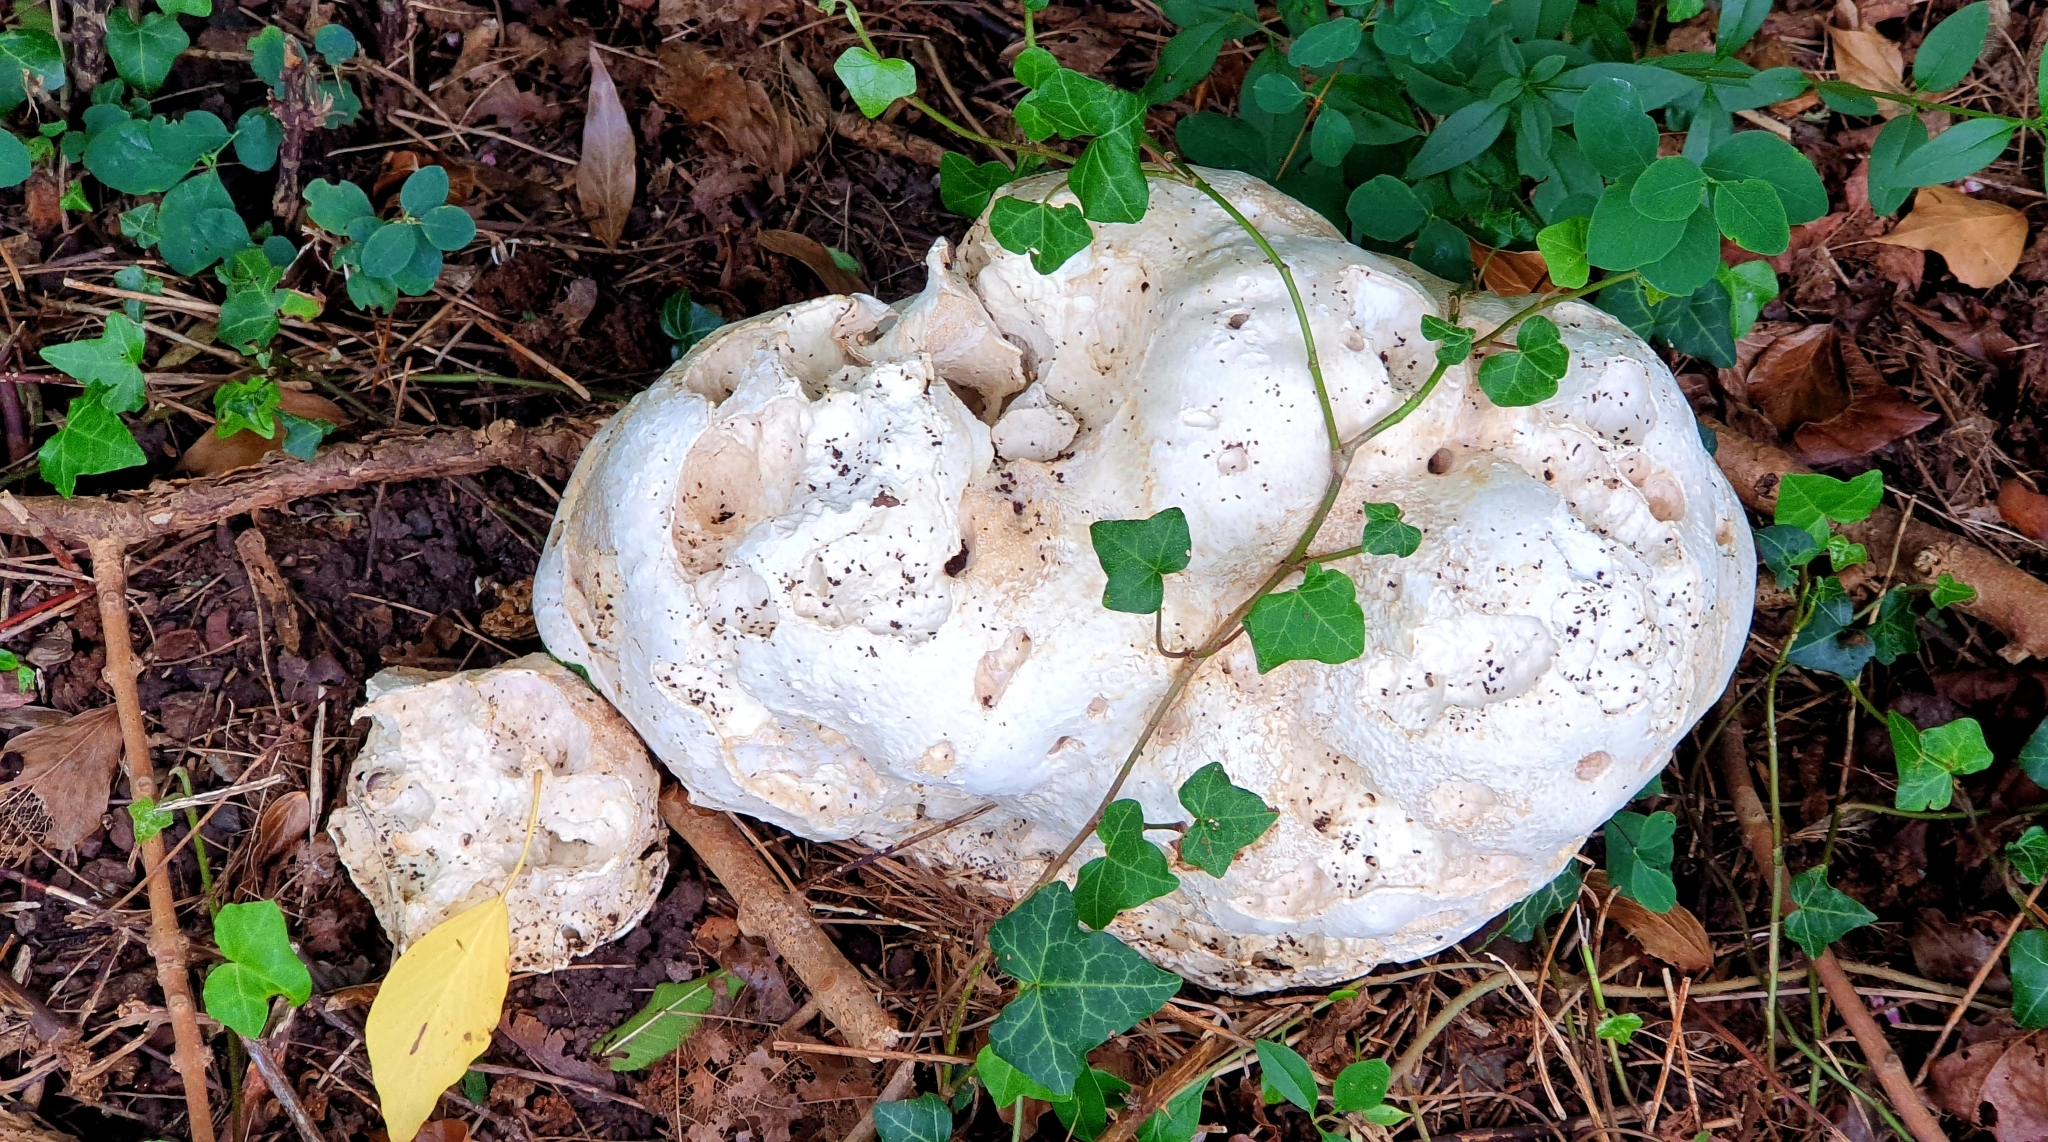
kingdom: Fungi
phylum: Basidiomycota
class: Agaricomycetes
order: Agaricales
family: Lycoperdaceae
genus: Calvatia
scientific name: Calvatia gigantea
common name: Giant puffball
